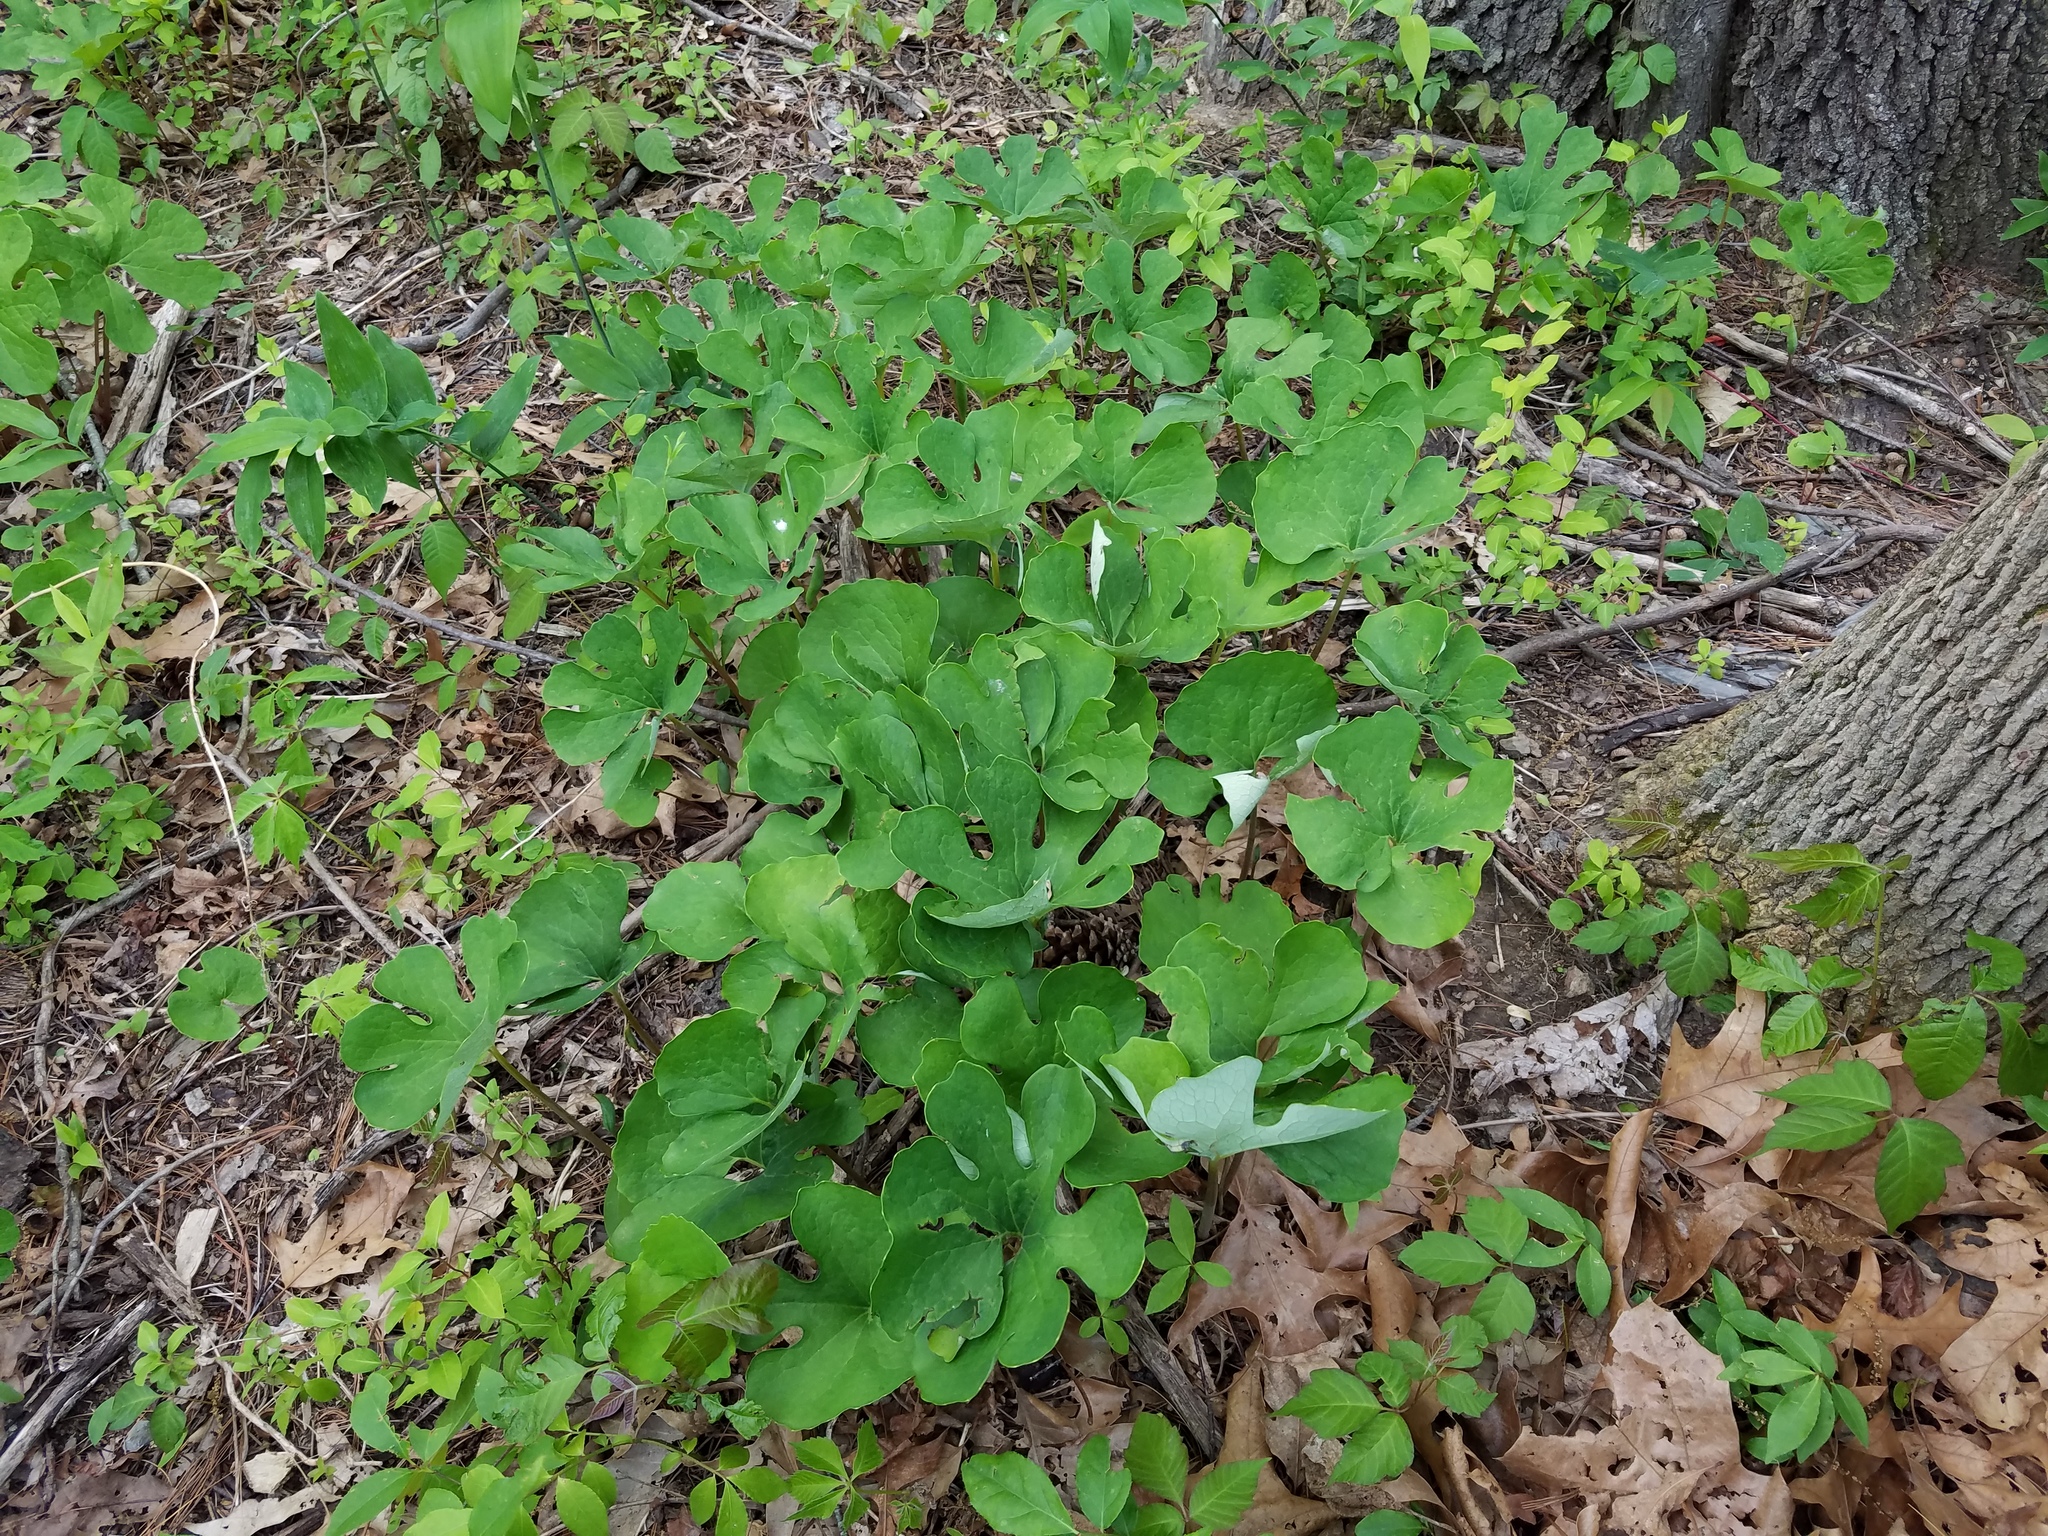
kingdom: Plantae
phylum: Tracheophyta
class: Magnoliopsida
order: Ranunculales
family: Papaveraceae
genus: Sanguinaria
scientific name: Sanguinaria canadensis
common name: Bloodroot
